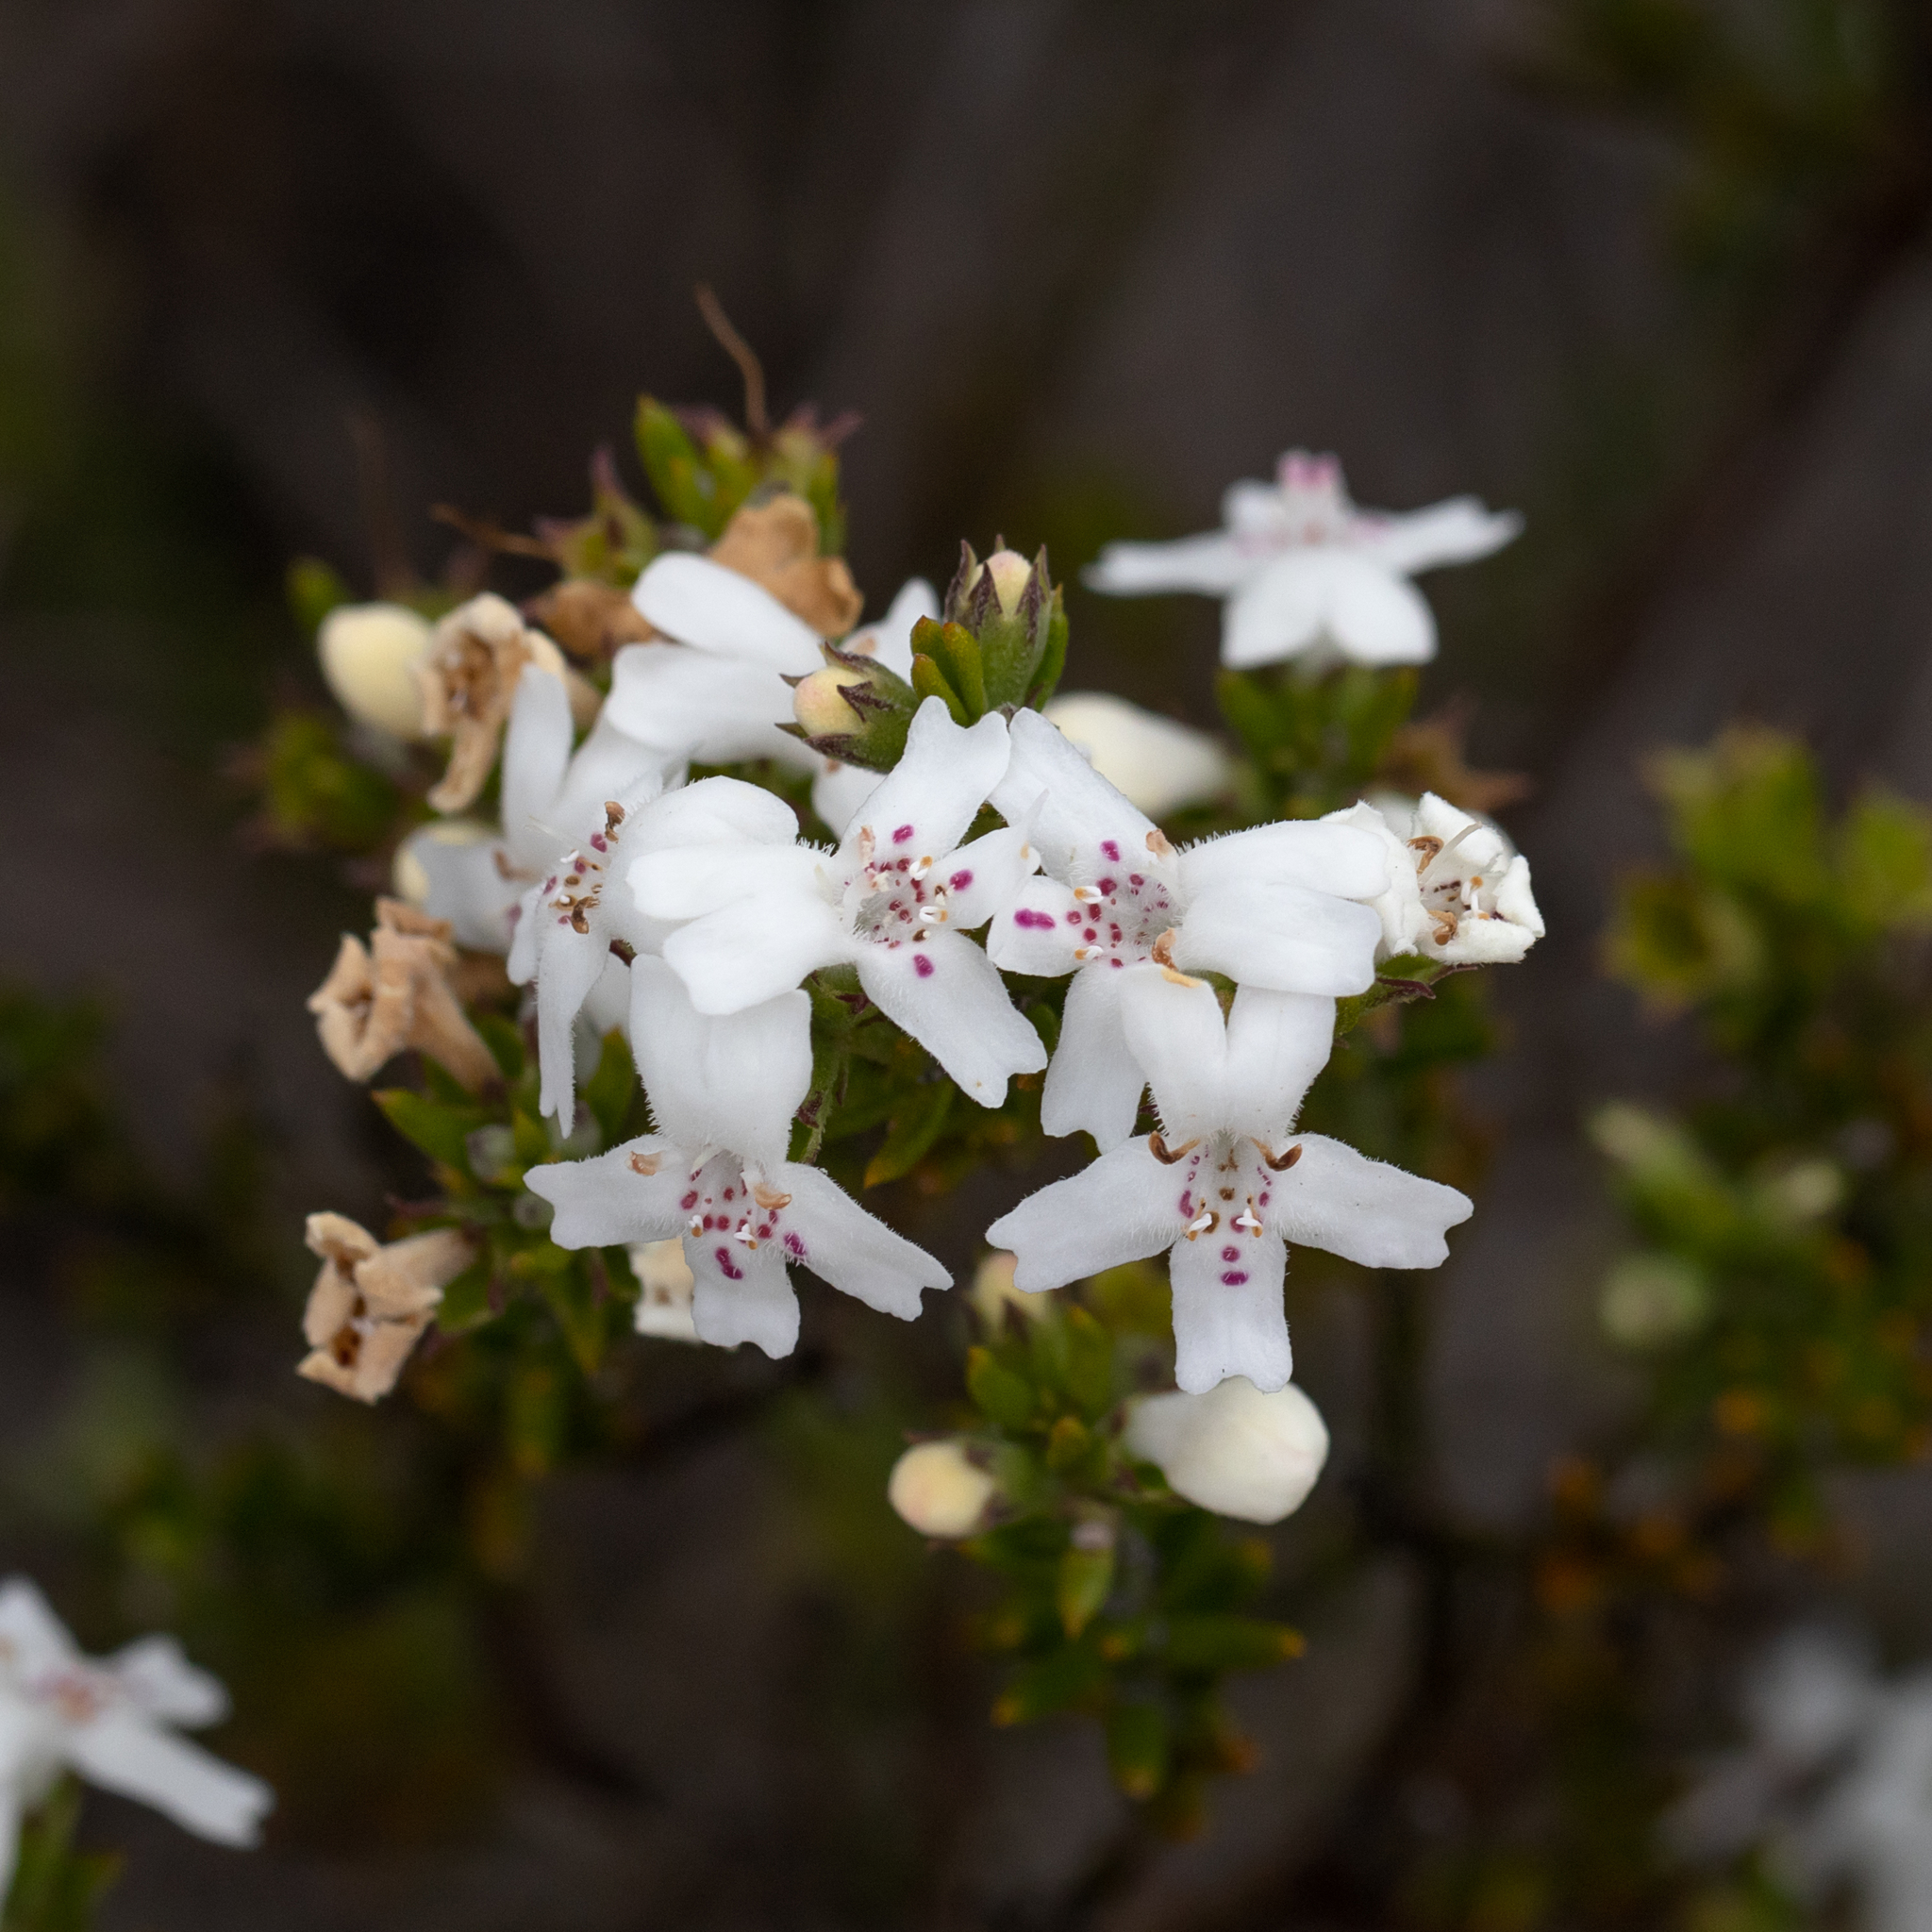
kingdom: Plantae
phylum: Tracheophyta
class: Magnoliopsida
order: Lamiales
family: Lamiaceae
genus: Westringia
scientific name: Westringia rigida
